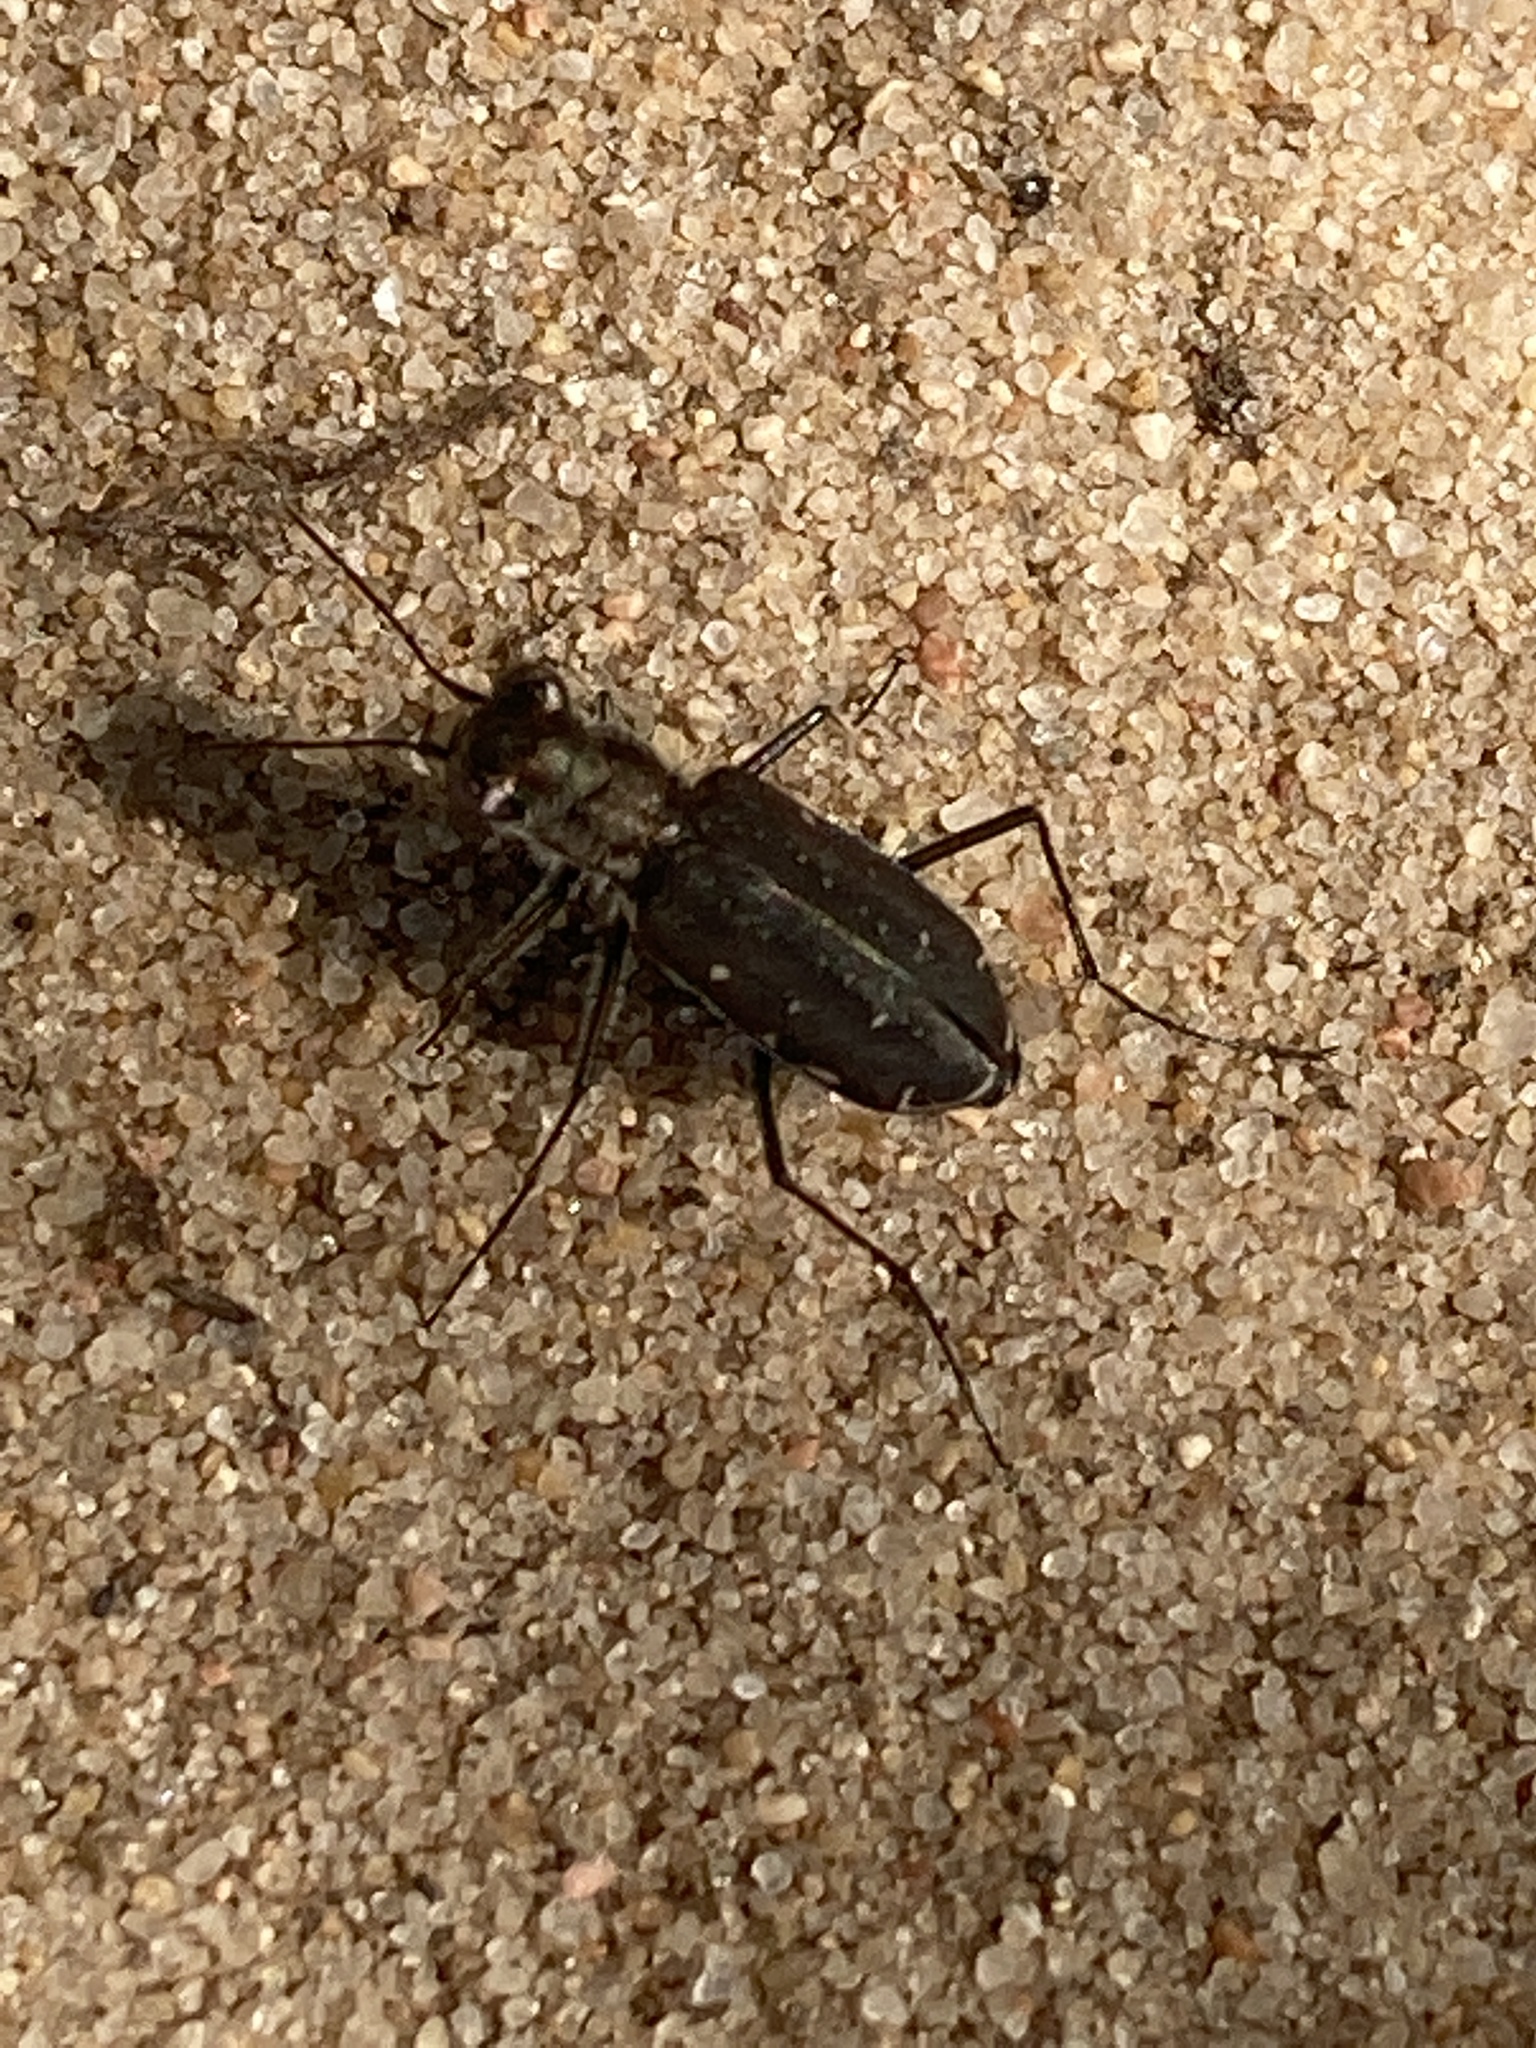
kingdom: Animalia
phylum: Arthropoda
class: Insecta
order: Coleoptera
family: Carabidae
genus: Cicindela
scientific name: Cicindela punctulata
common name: Punctured tiger beetle
